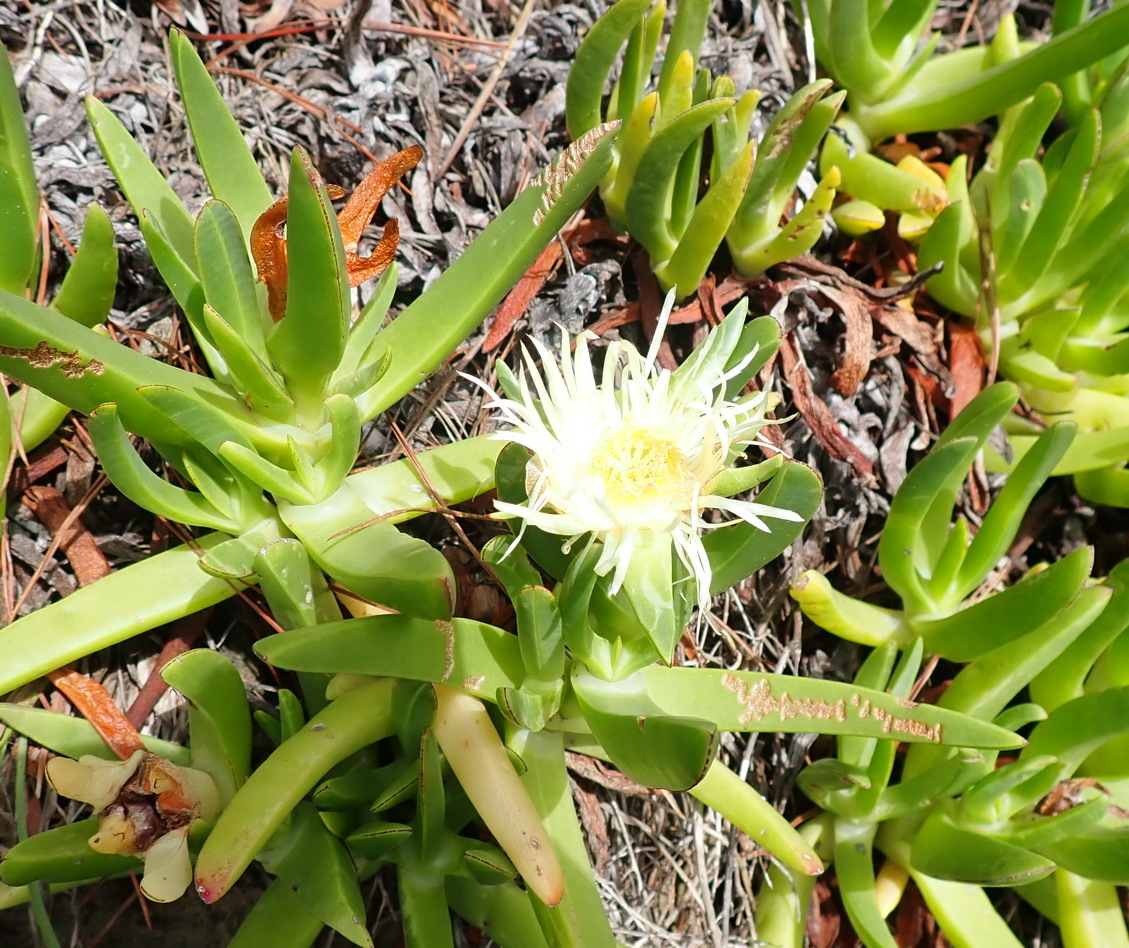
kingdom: Plantae
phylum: Tracheophyta
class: Magnoliopsida
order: Caryophyllales
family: Aizoaceae
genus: Carpobrotus
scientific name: Carpobrotus edulis
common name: Hottentot-fig
